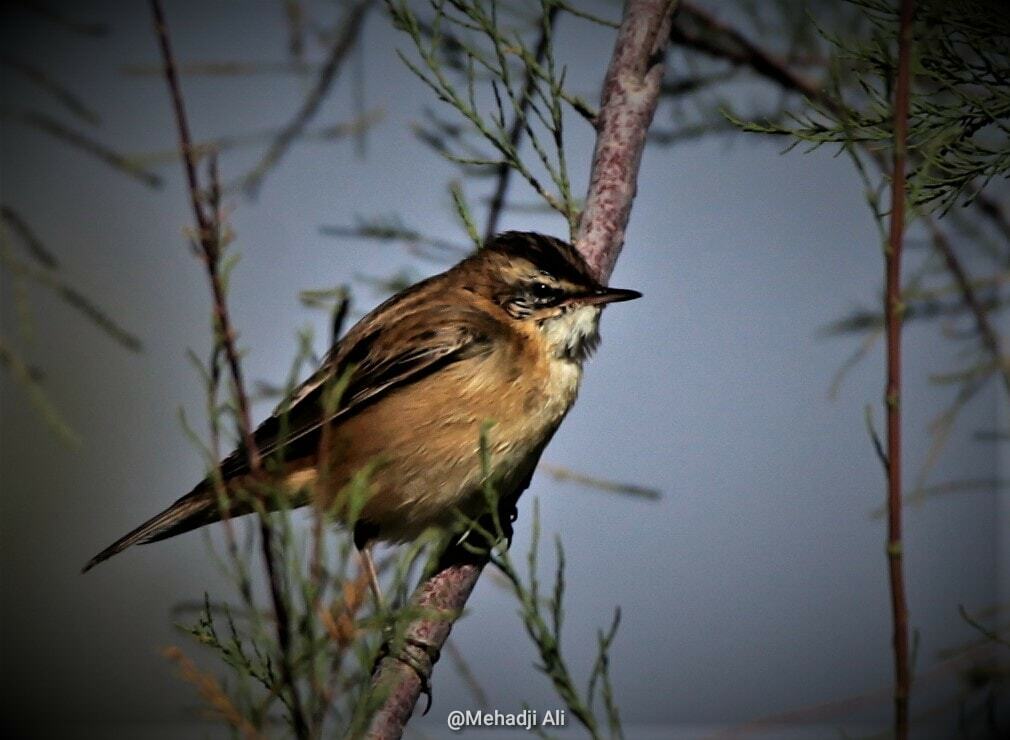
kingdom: Animalia
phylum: Chordata
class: Aves
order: Passeriformes
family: Acrocephalidae
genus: Acrocephalus
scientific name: Acrocephalus melanopogon
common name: Moustached warbler
